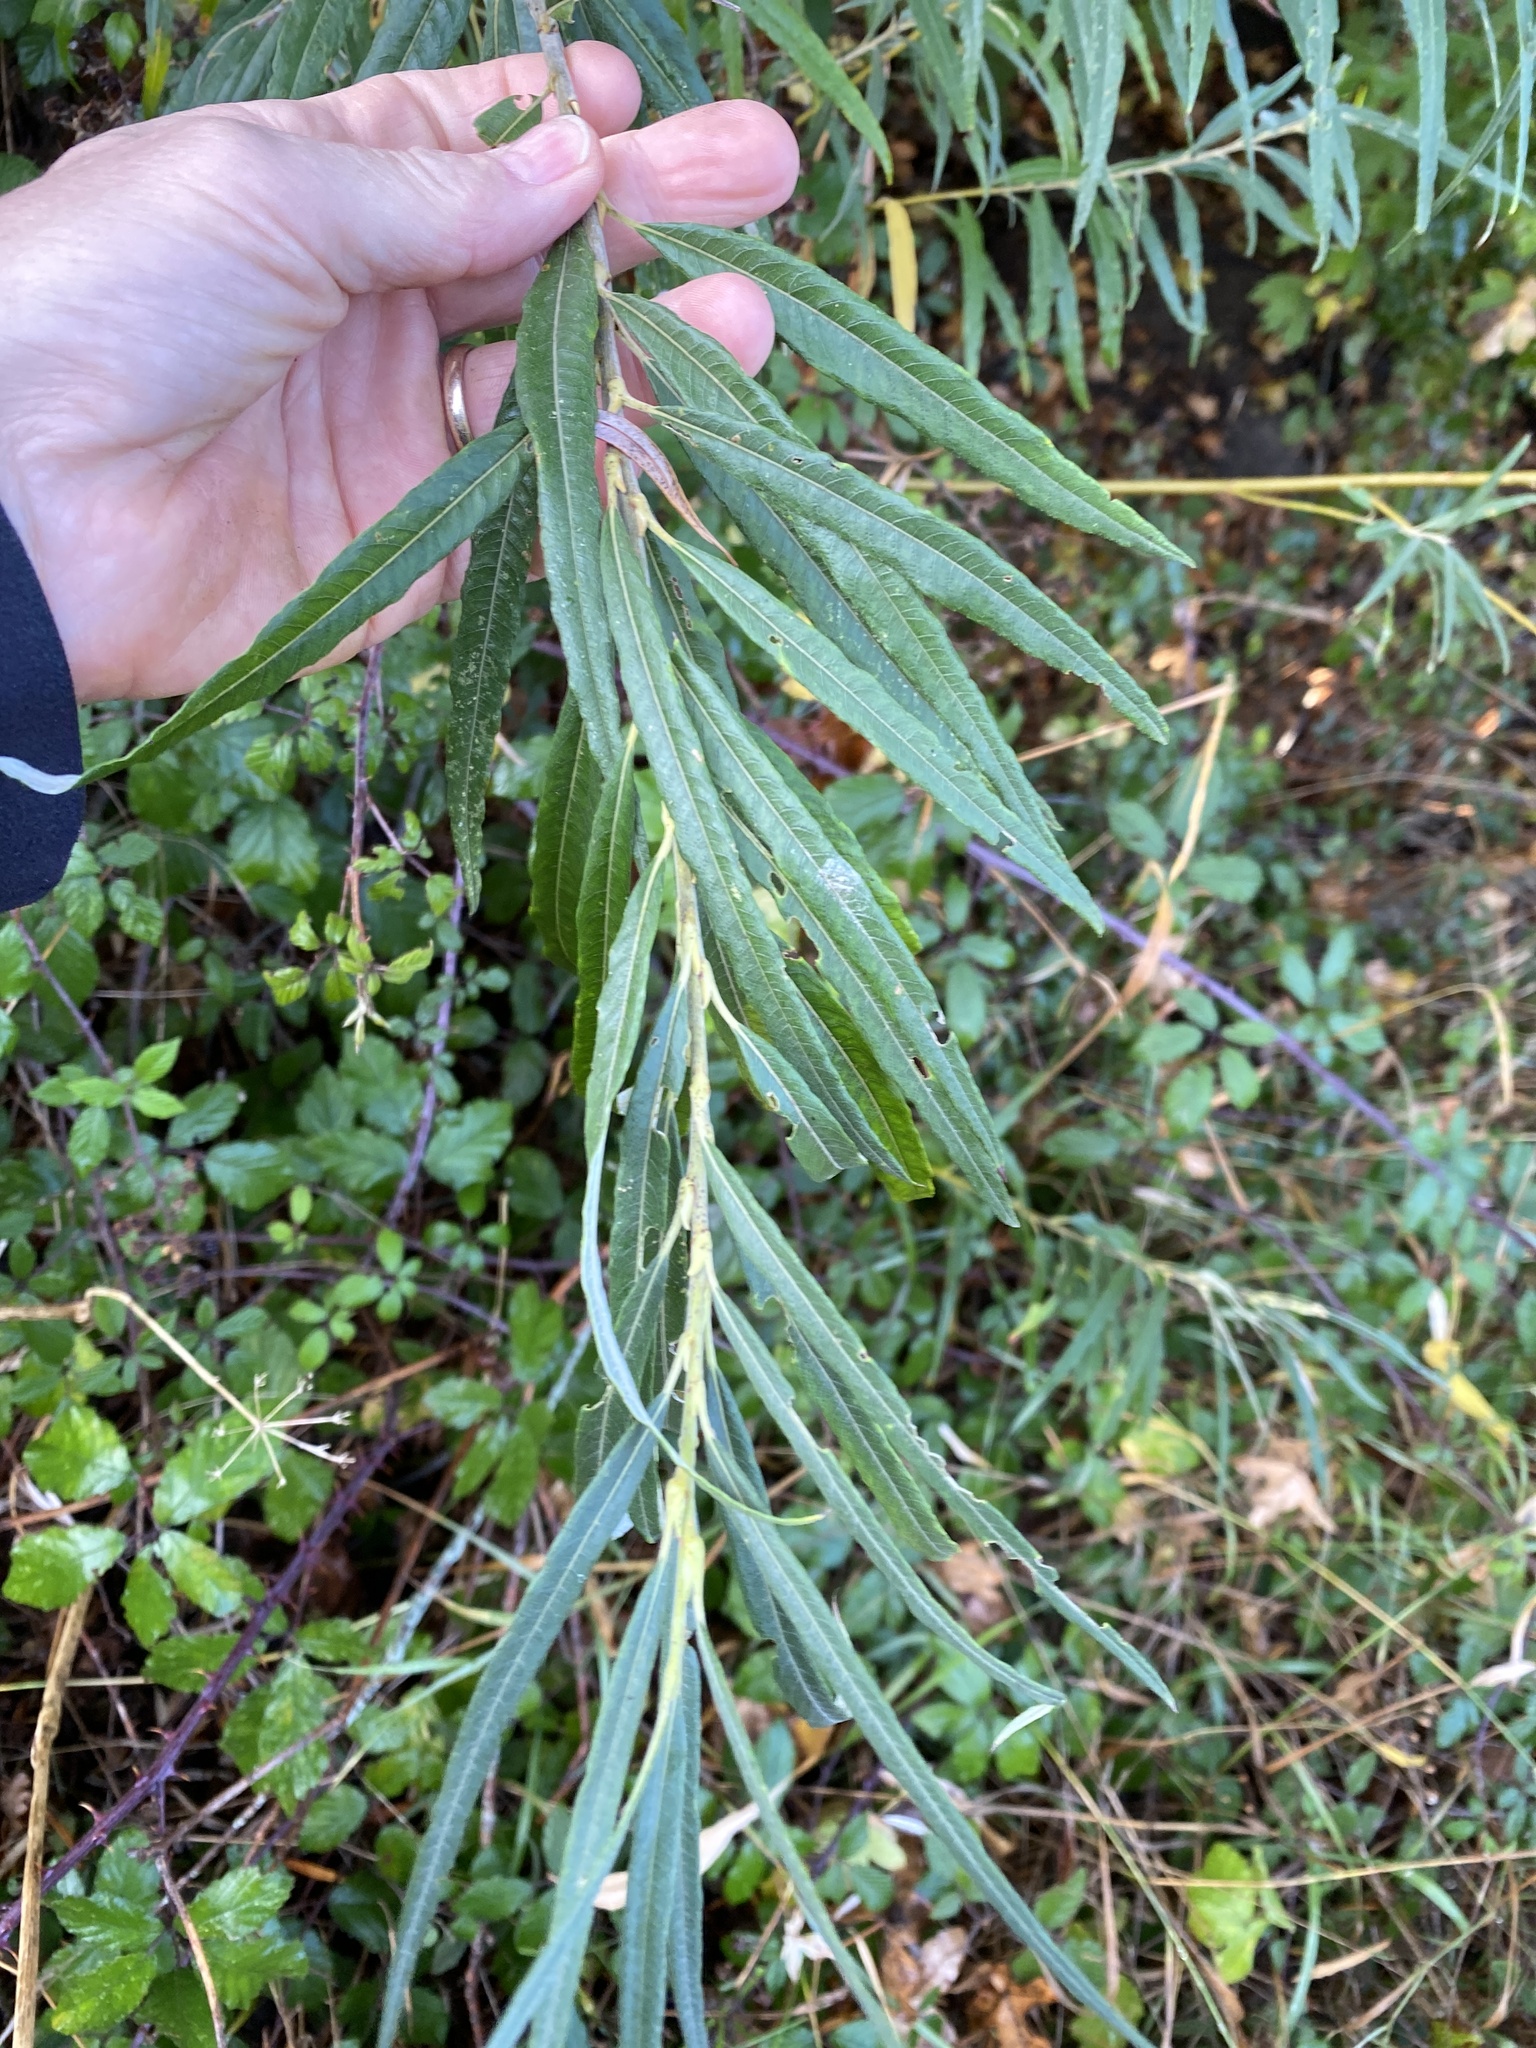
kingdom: Plantae
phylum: Tracheophyta
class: Magnoliopsida
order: Malpighiales
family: Salicaceae
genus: Salix
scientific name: Salix viminalis
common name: Osier
